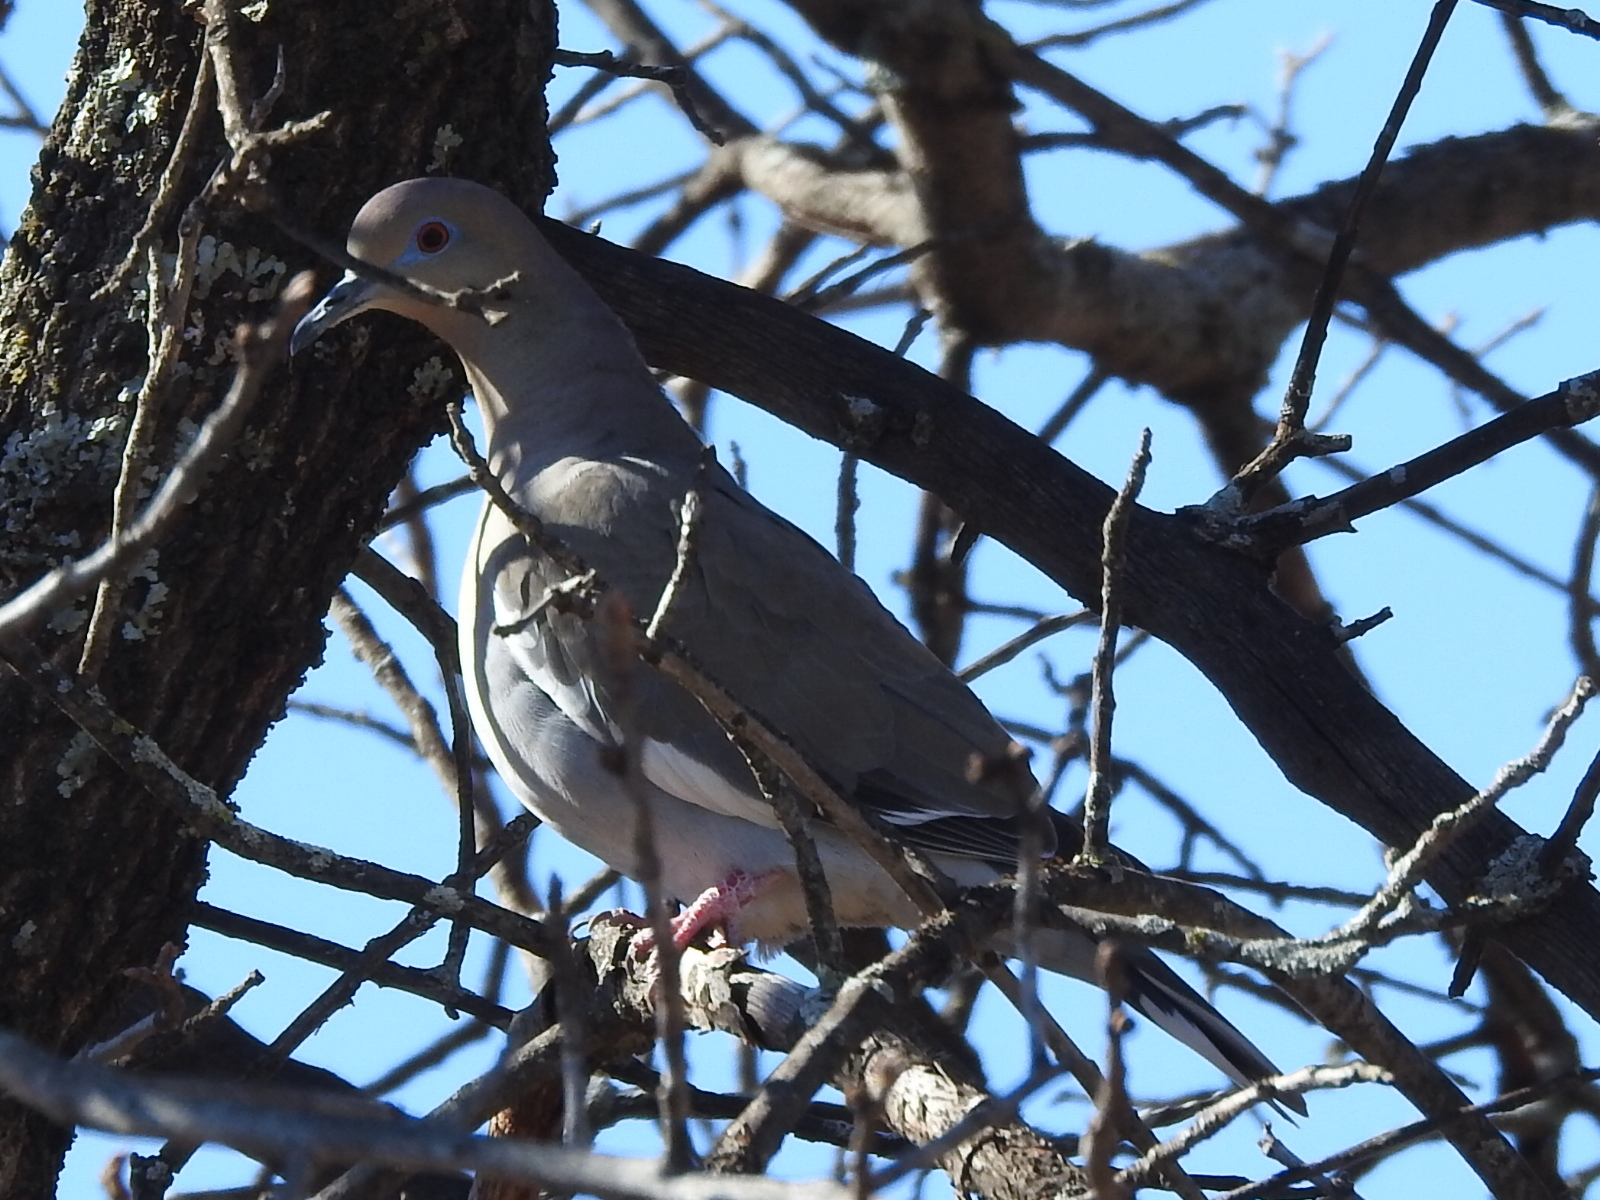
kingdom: Animalia
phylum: Chordata
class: Aves
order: Columbiformes
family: Columbidae
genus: Zenaida
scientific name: Zenaida asiatica
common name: White-winged dove
